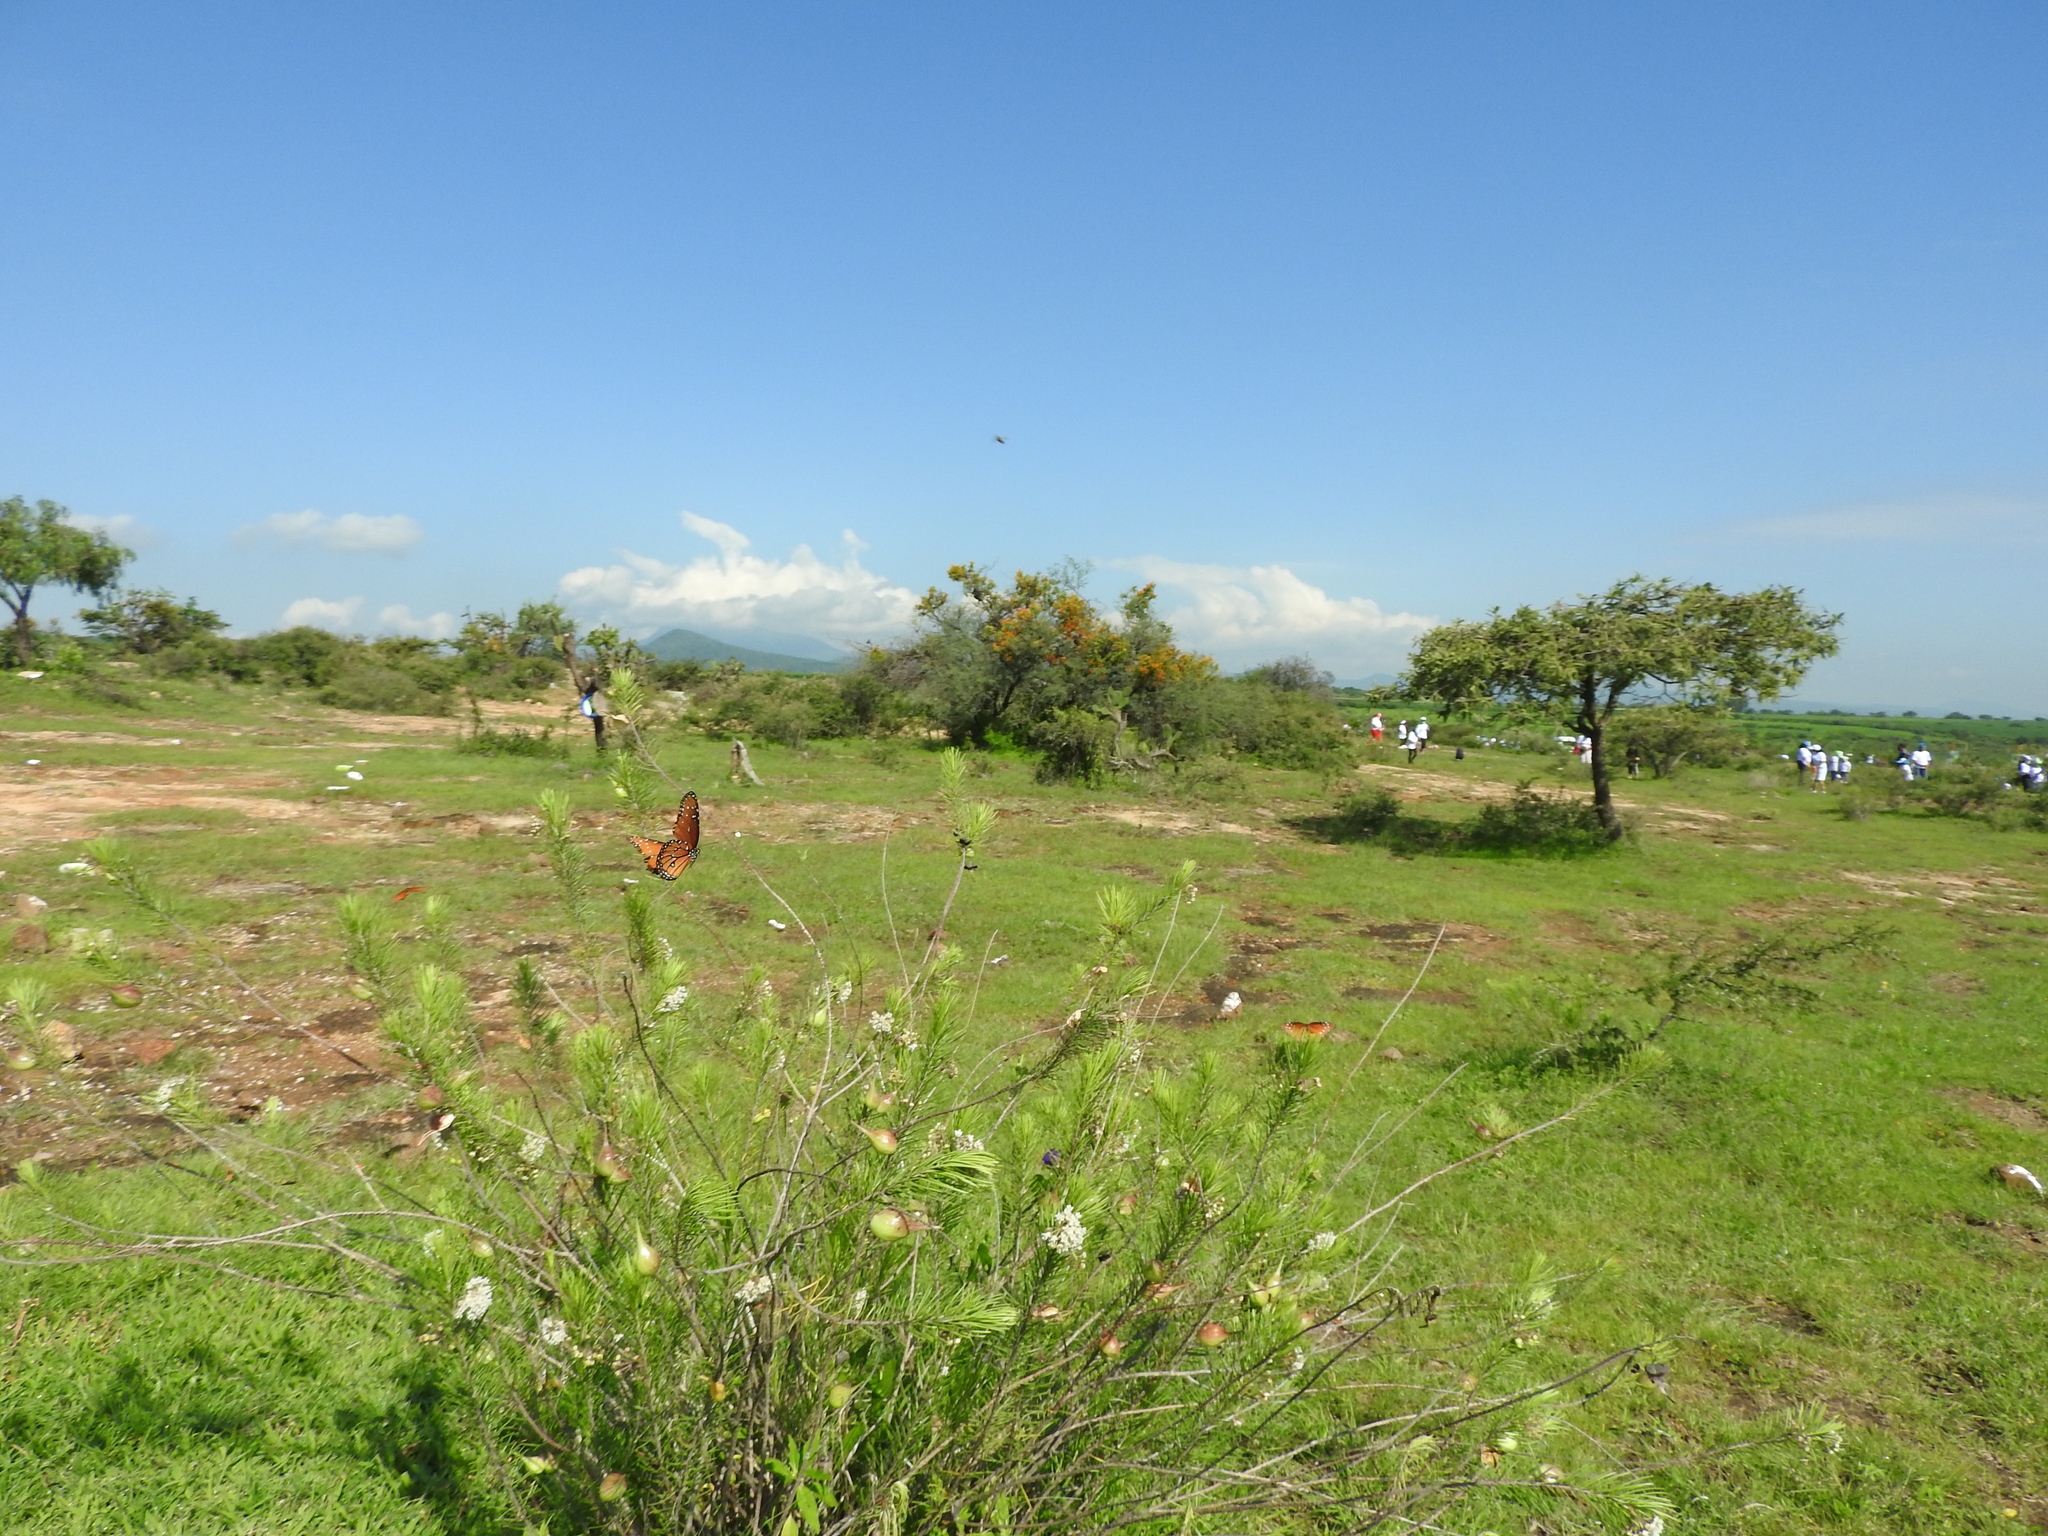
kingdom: Animalia
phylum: Arthropoda
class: Insecta
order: Lepidoptera
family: Nymphalidae
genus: Danaus
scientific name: Danaus gilippus
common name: Queen
